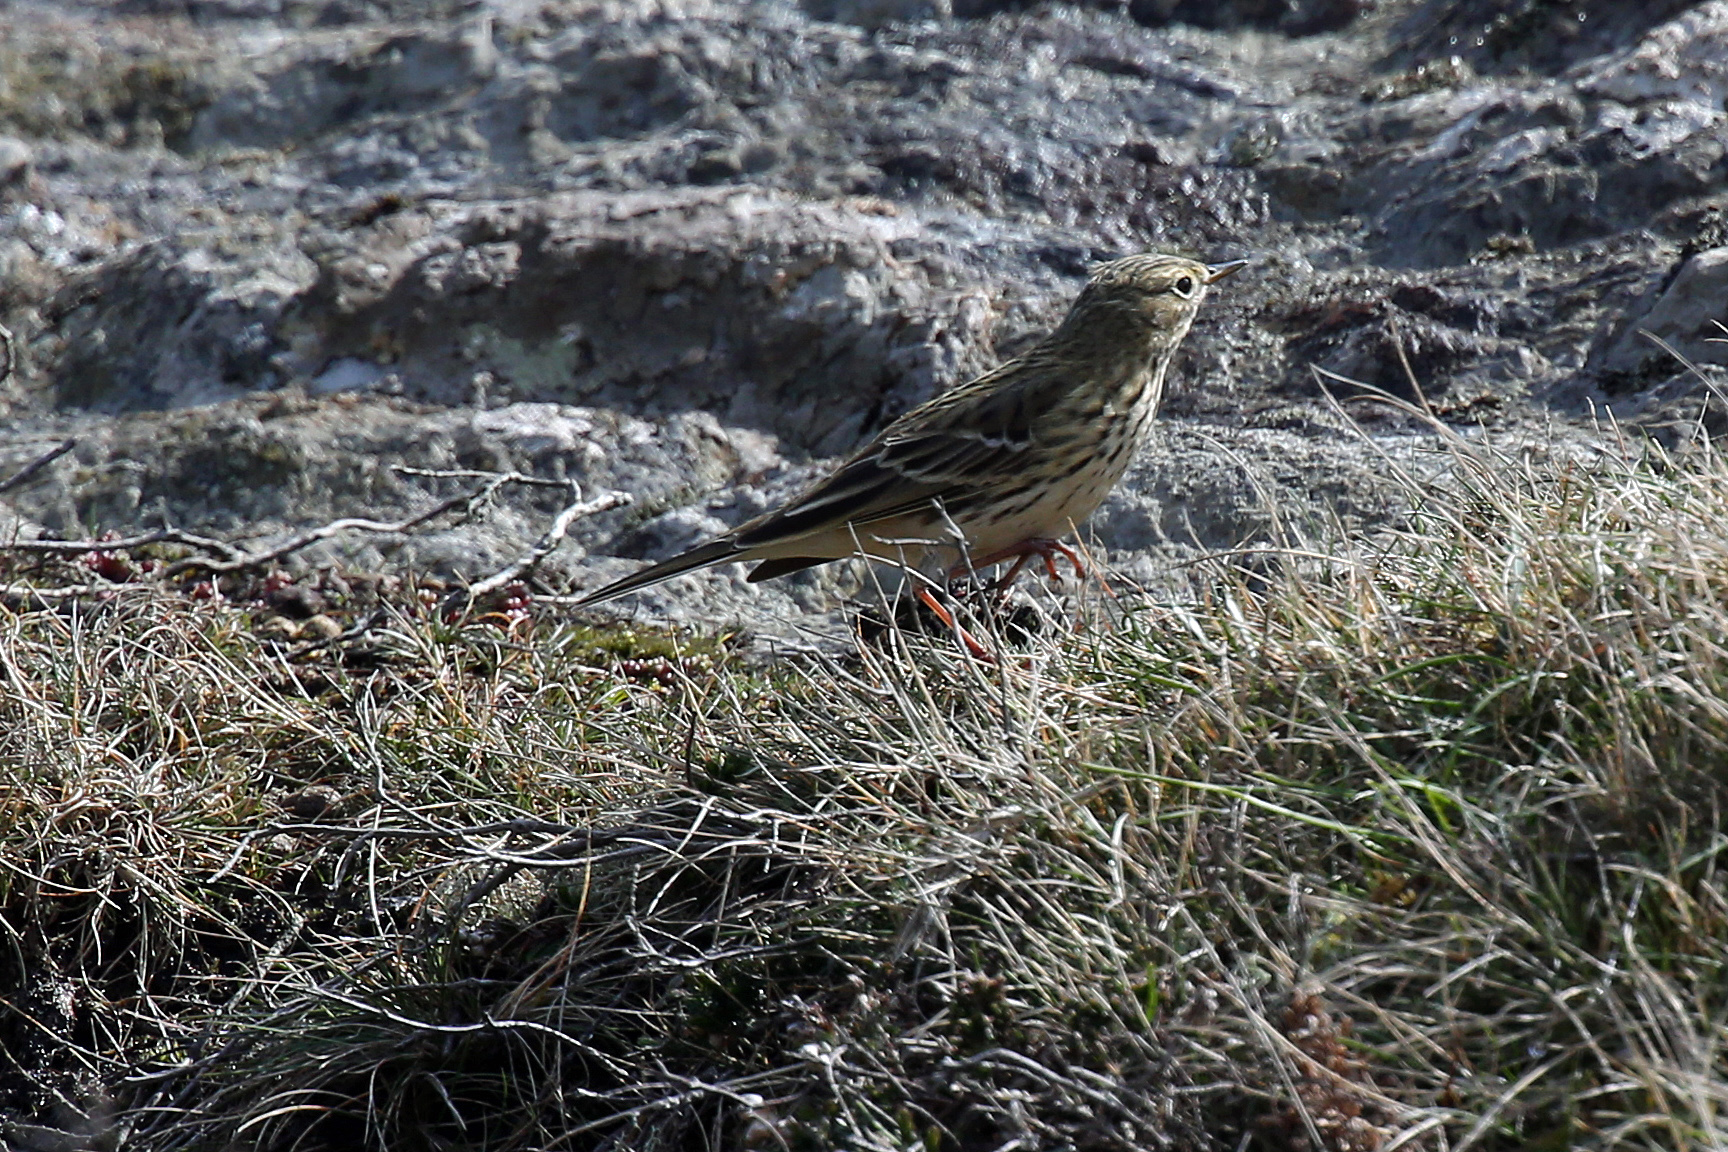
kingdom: Animalia
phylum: Chordata
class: Aves
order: Passeriformes
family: Motacillidae
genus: Anthus
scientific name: Anthus pratensis
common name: Meadow pipit
